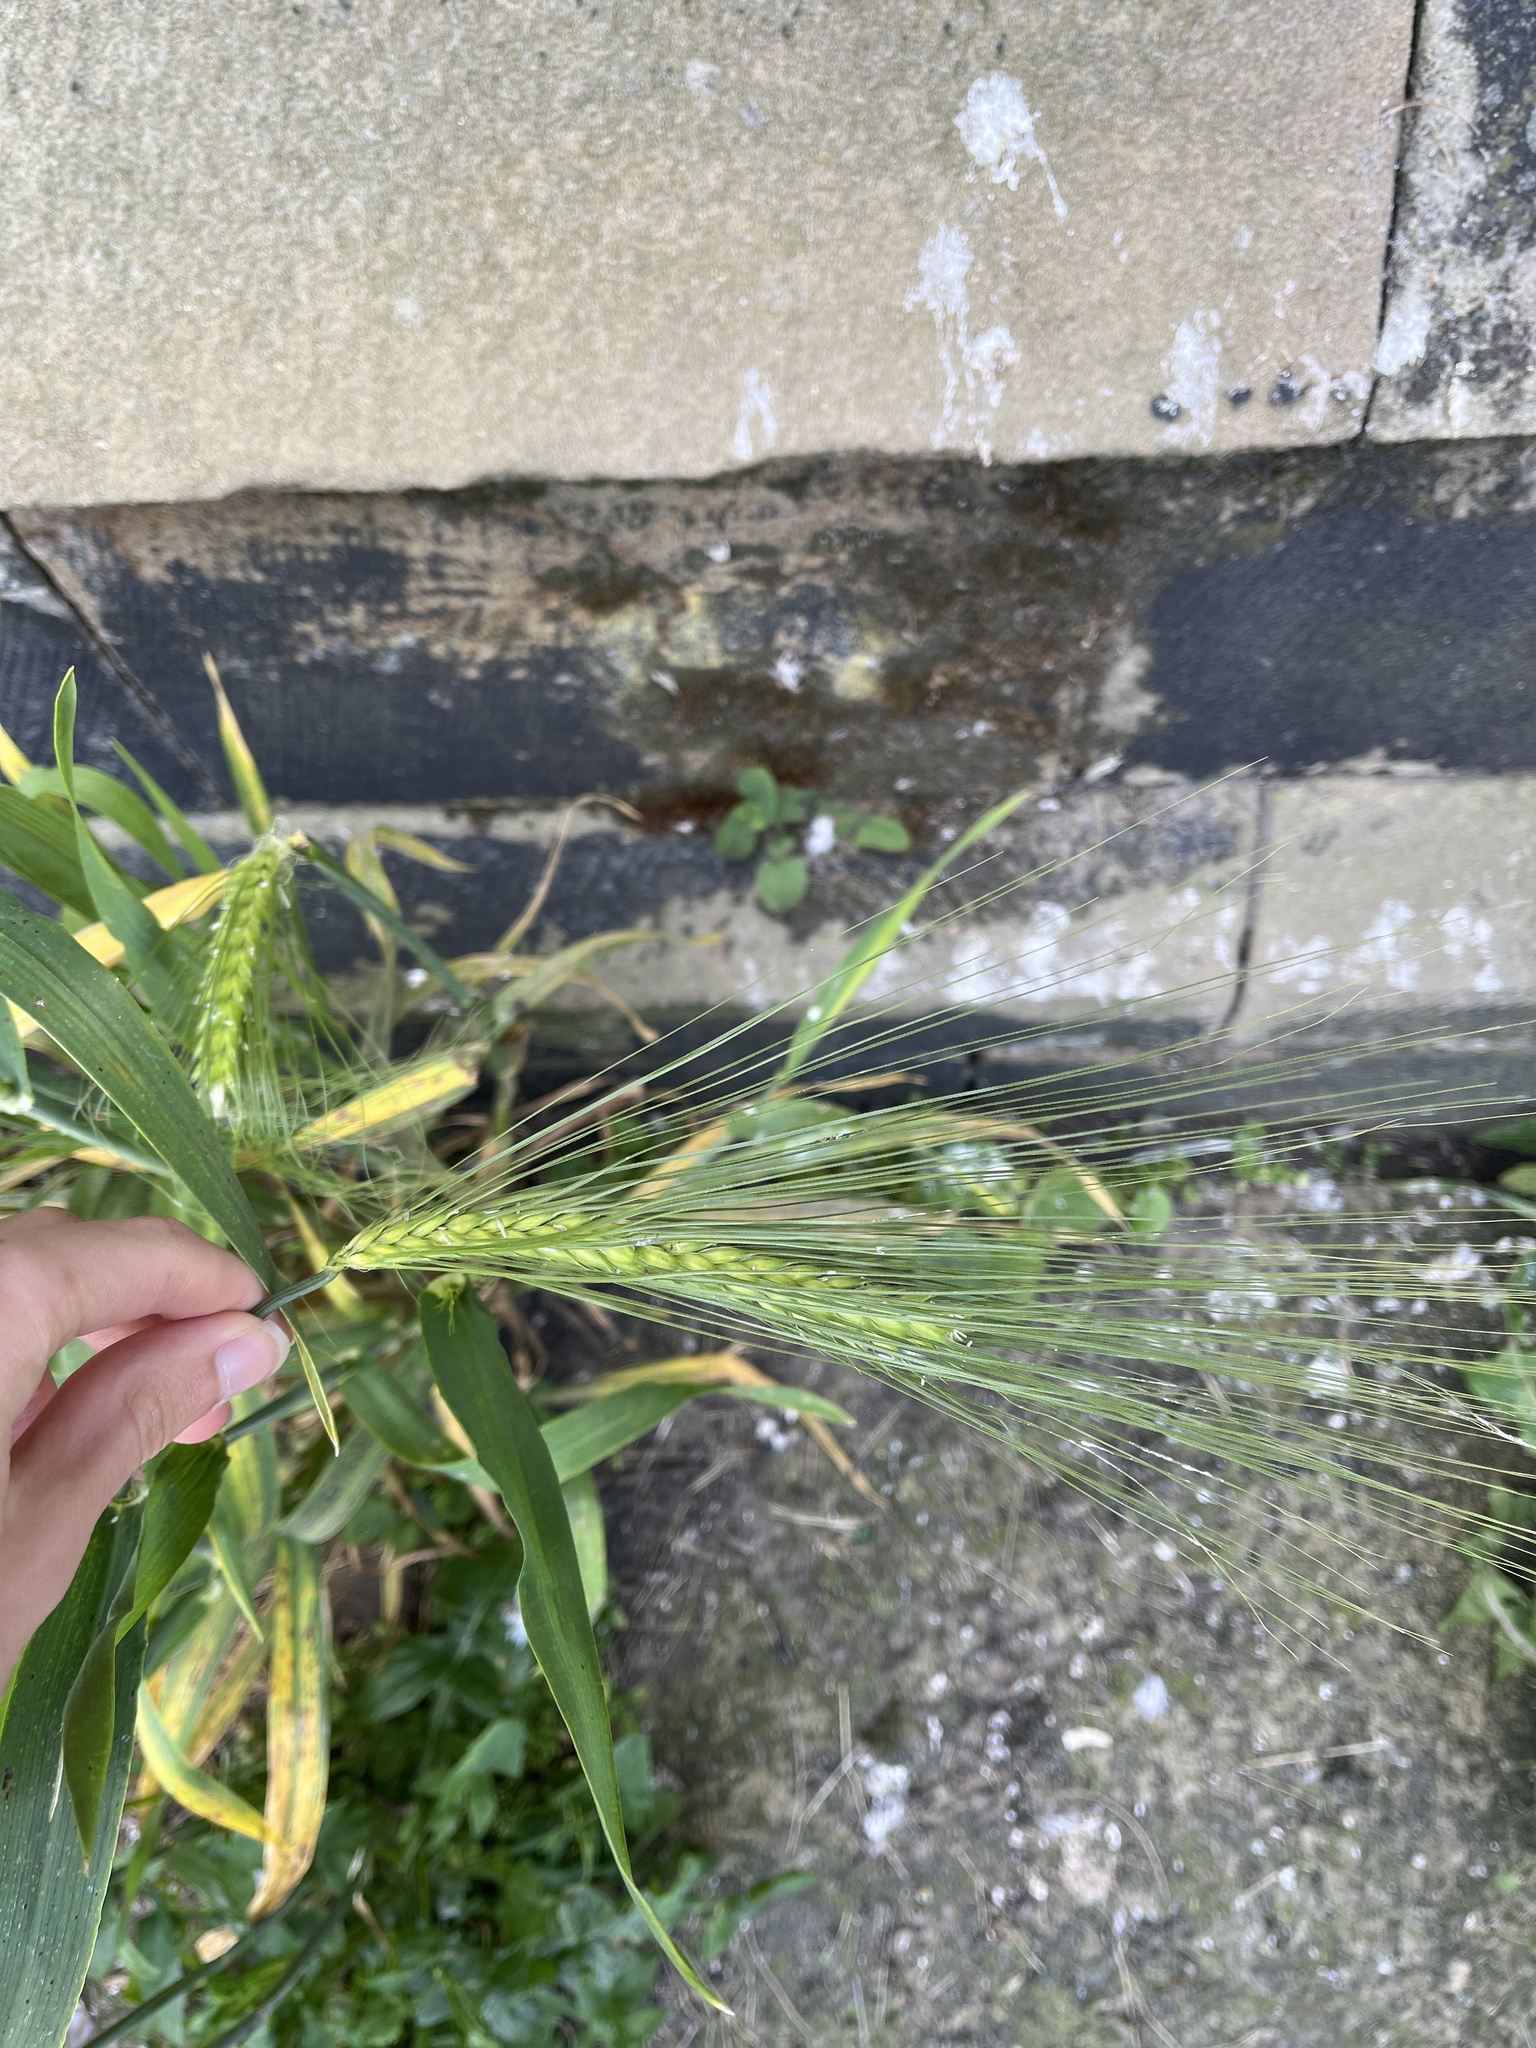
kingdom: Plantae
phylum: Tracheophyta
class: Liliopsida
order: Poales
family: Poaceae
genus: Hordeum
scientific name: Hordeum vulgare
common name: Common barley
